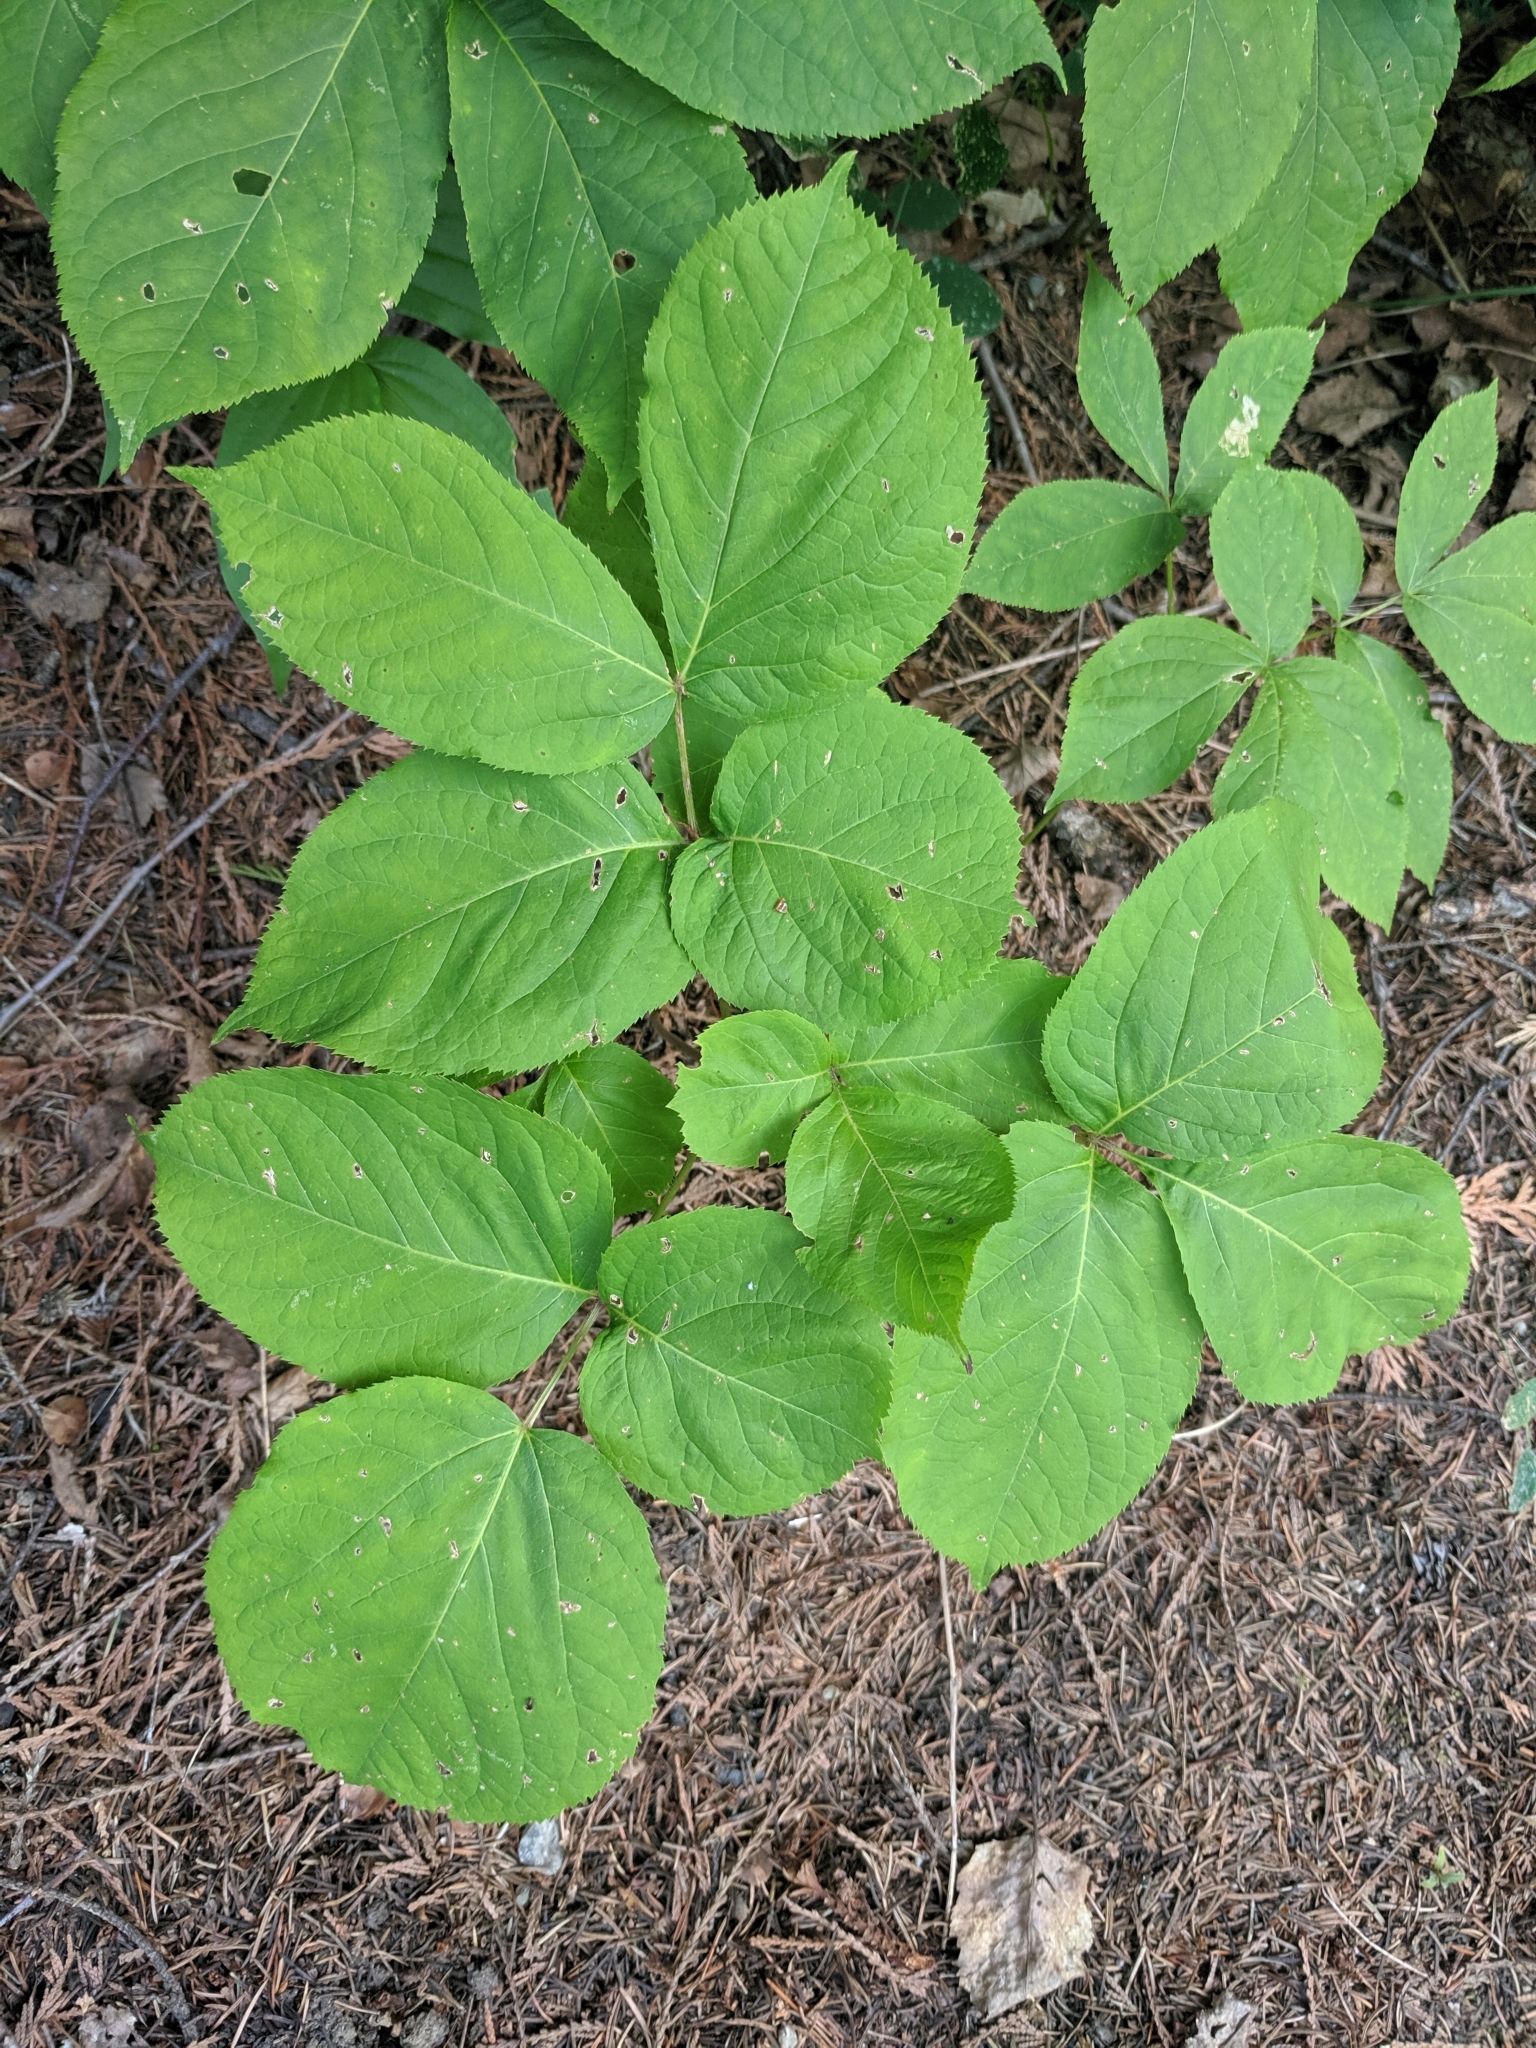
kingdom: Plantae
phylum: Tracheophyta
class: Magnoliopsida
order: Apiales
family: Araliaceae
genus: Aralia
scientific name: Aralia nudicaulis
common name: Wild sarsaparilla
